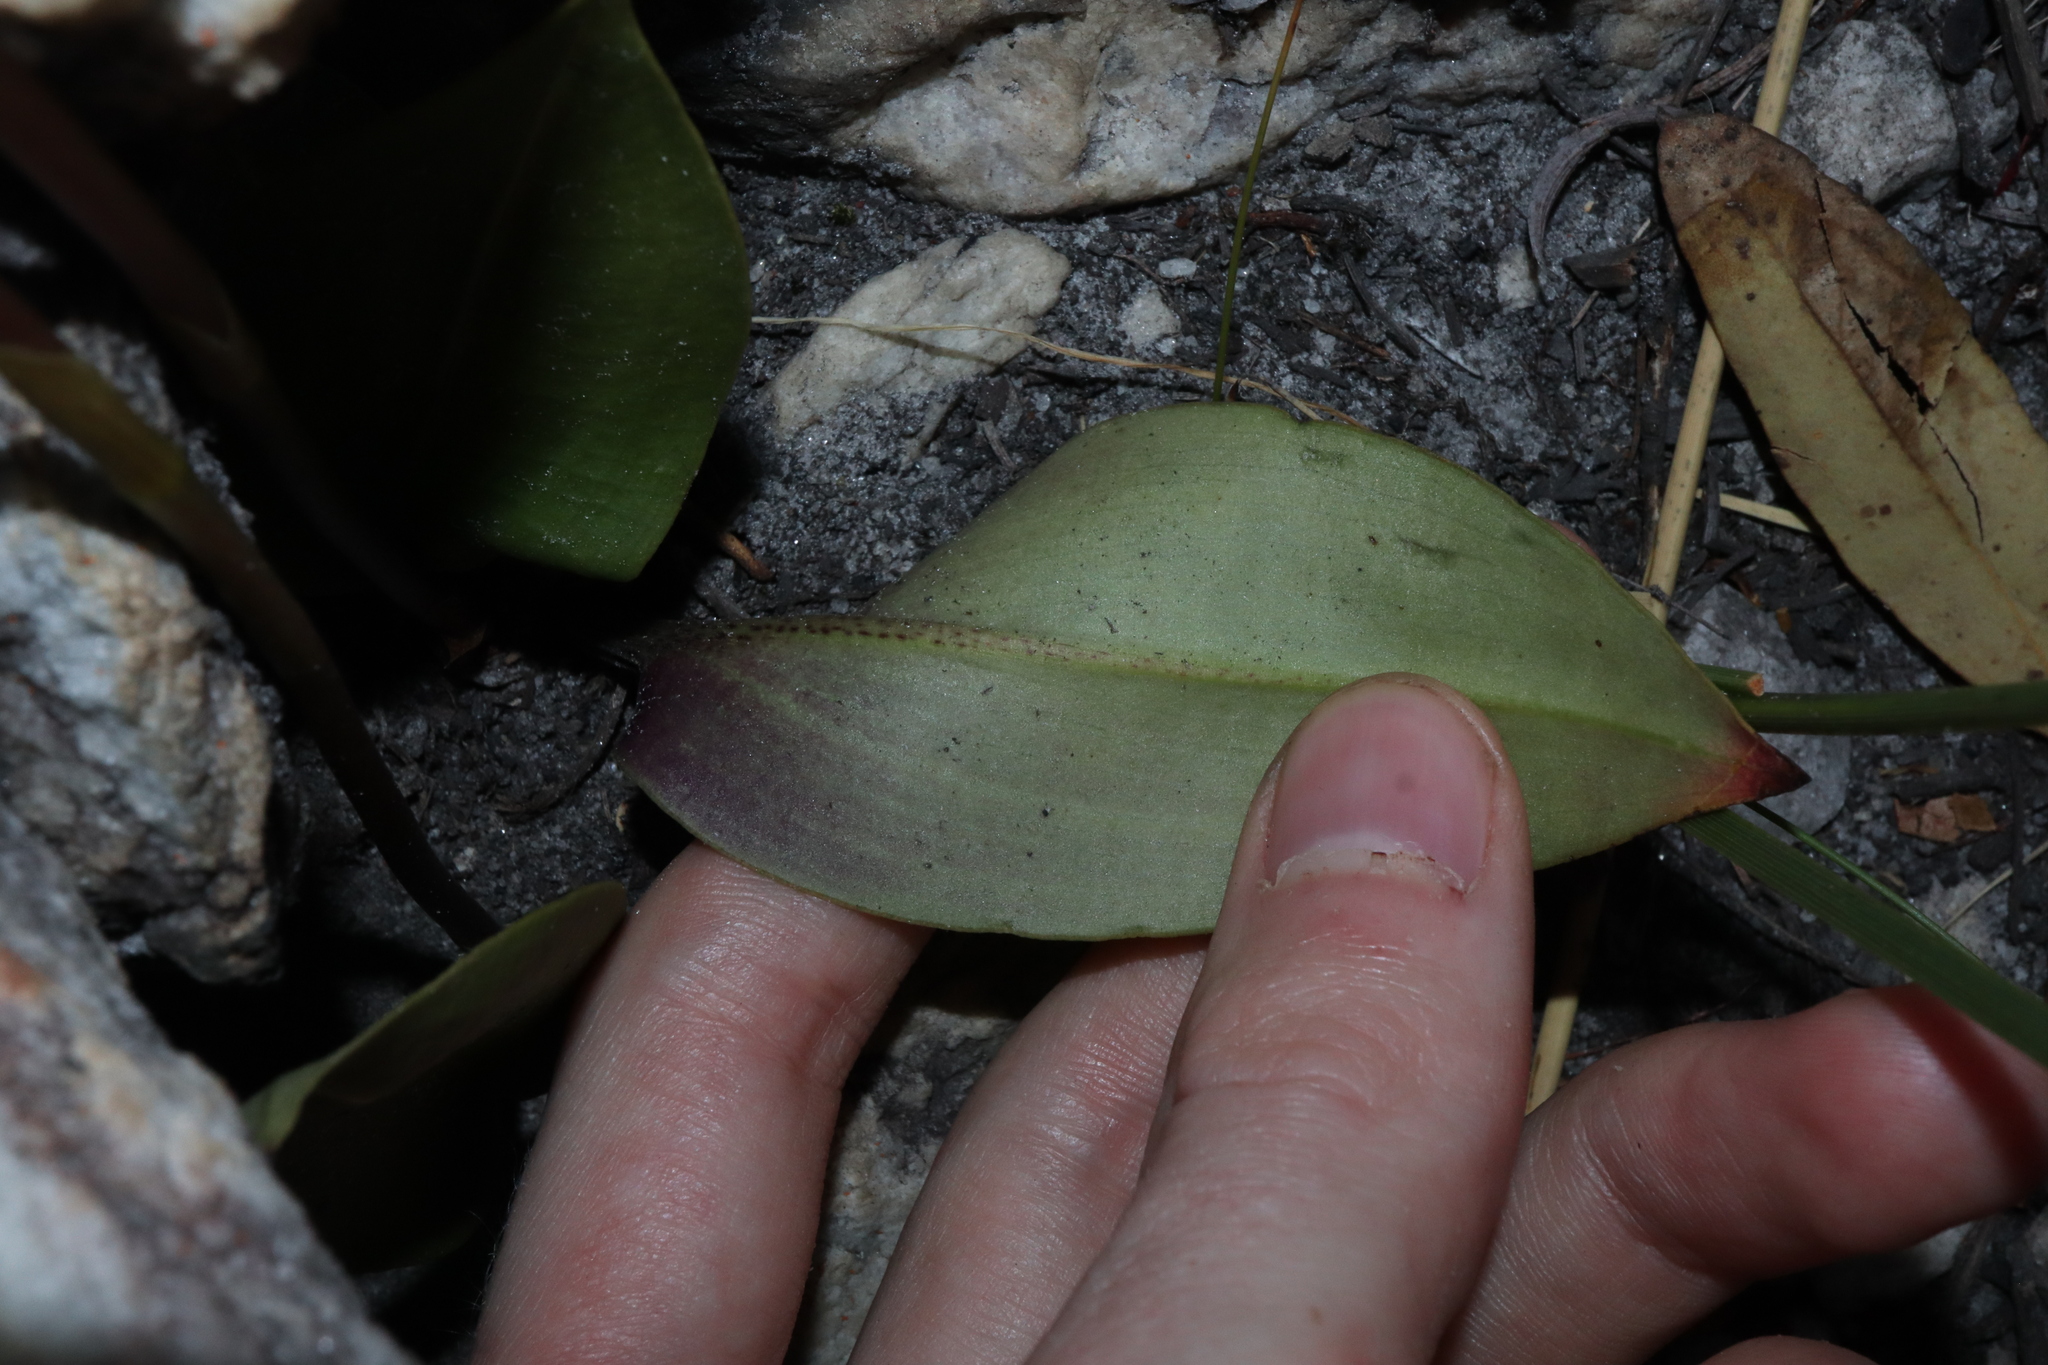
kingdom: Plantae
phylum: Tracheophyta
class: Liliopsida
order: Asparagales
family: Orchidaceae
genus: Cryptostylis
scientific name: Cryptostylis ovata
